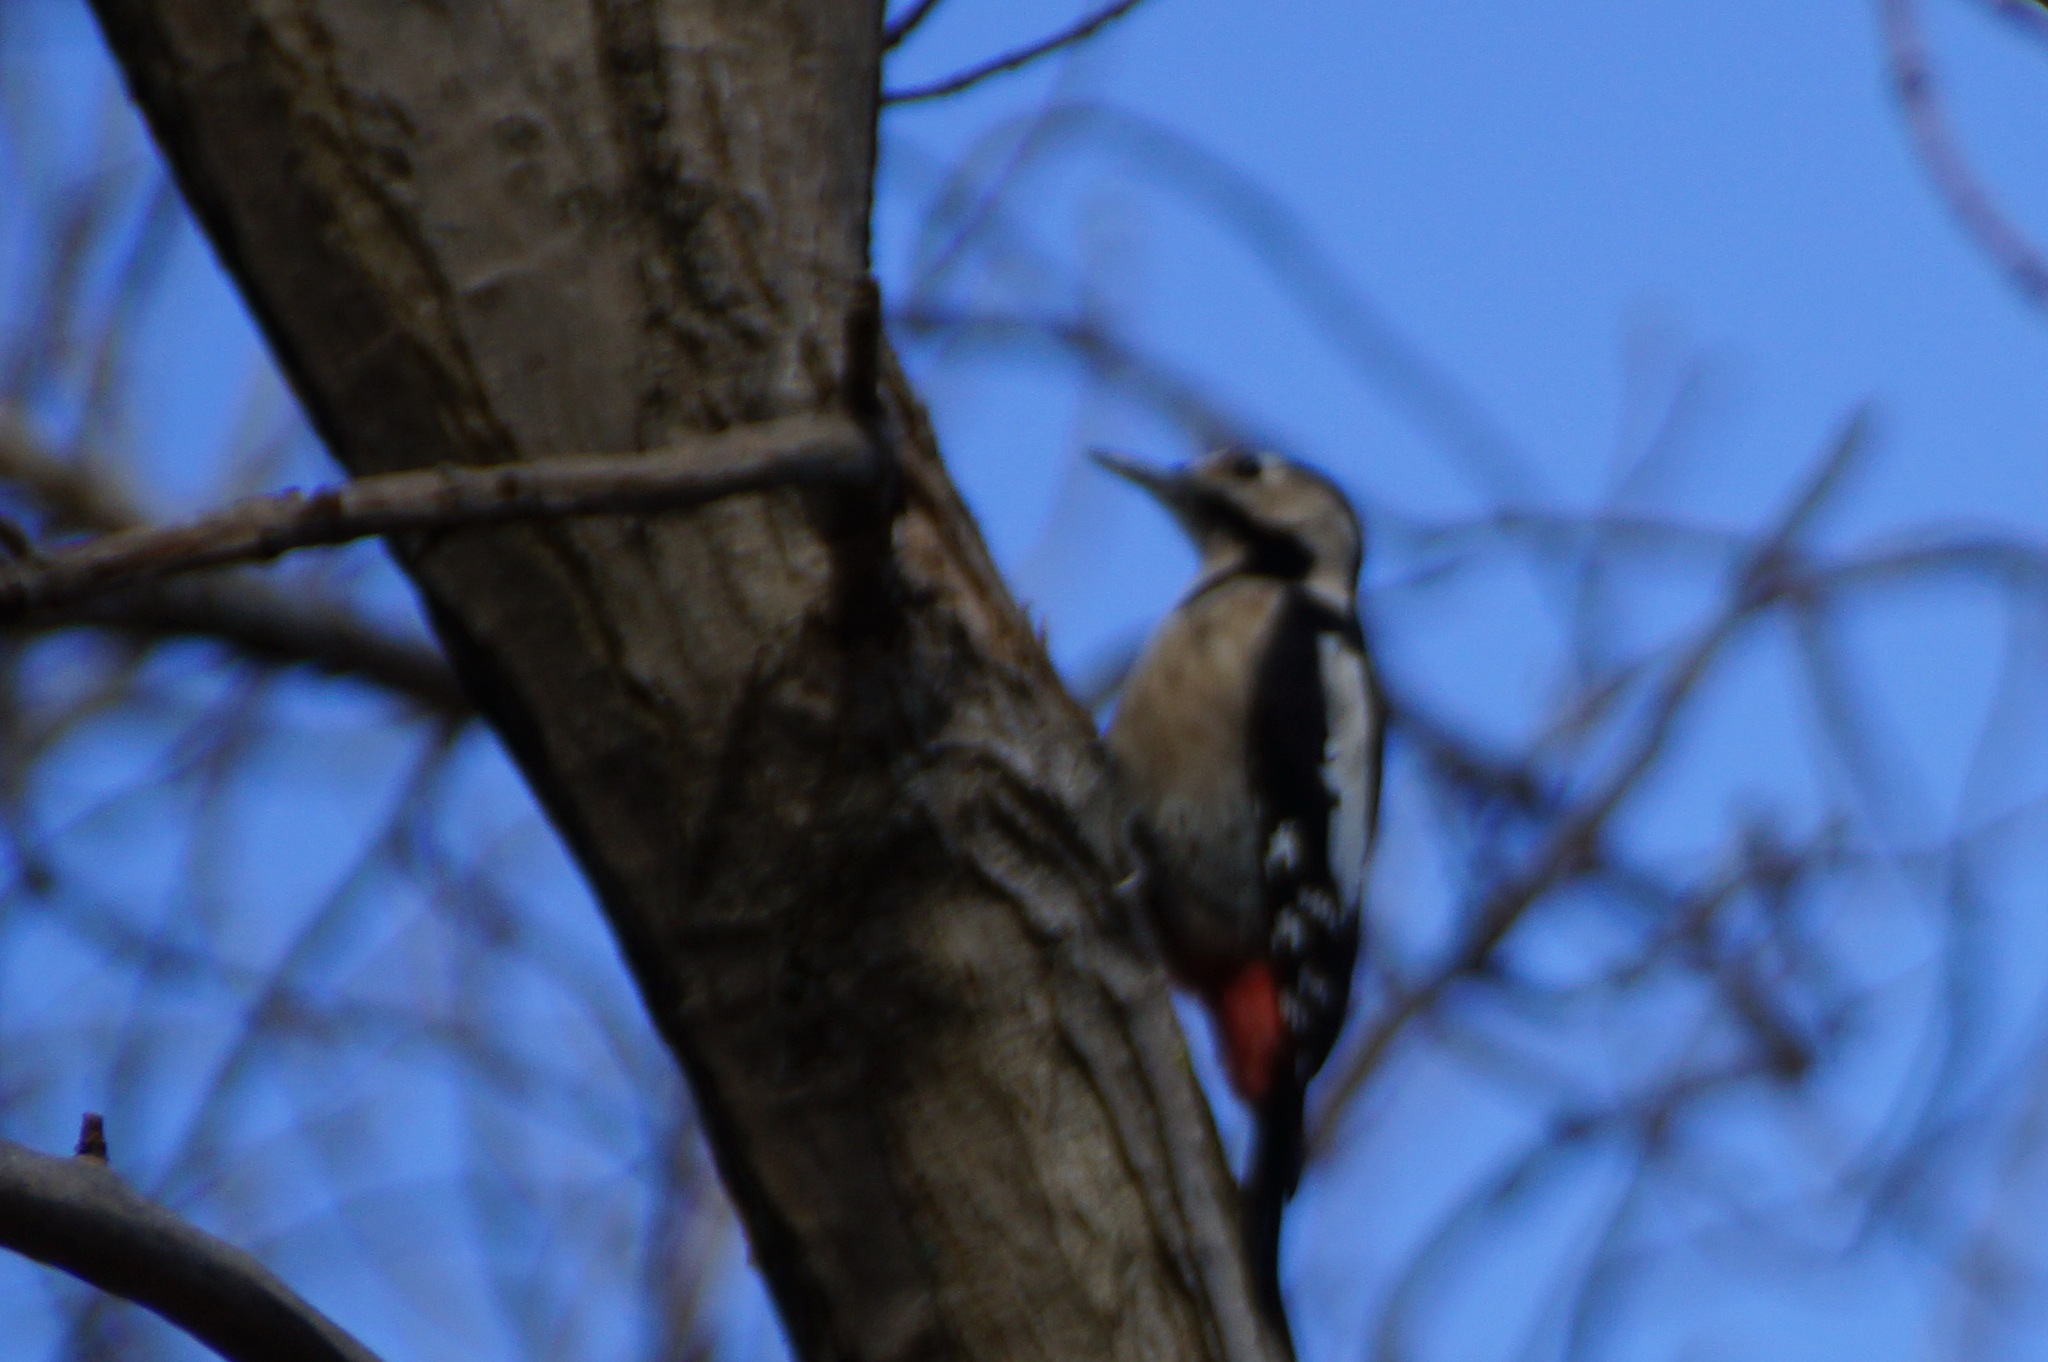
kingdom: Animalia
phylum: Chordata
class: Aves
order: Piciformes
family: Picidae
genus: Dendrocopos
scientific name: Dendrocopos syriacus
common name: Syrian woodpecker
